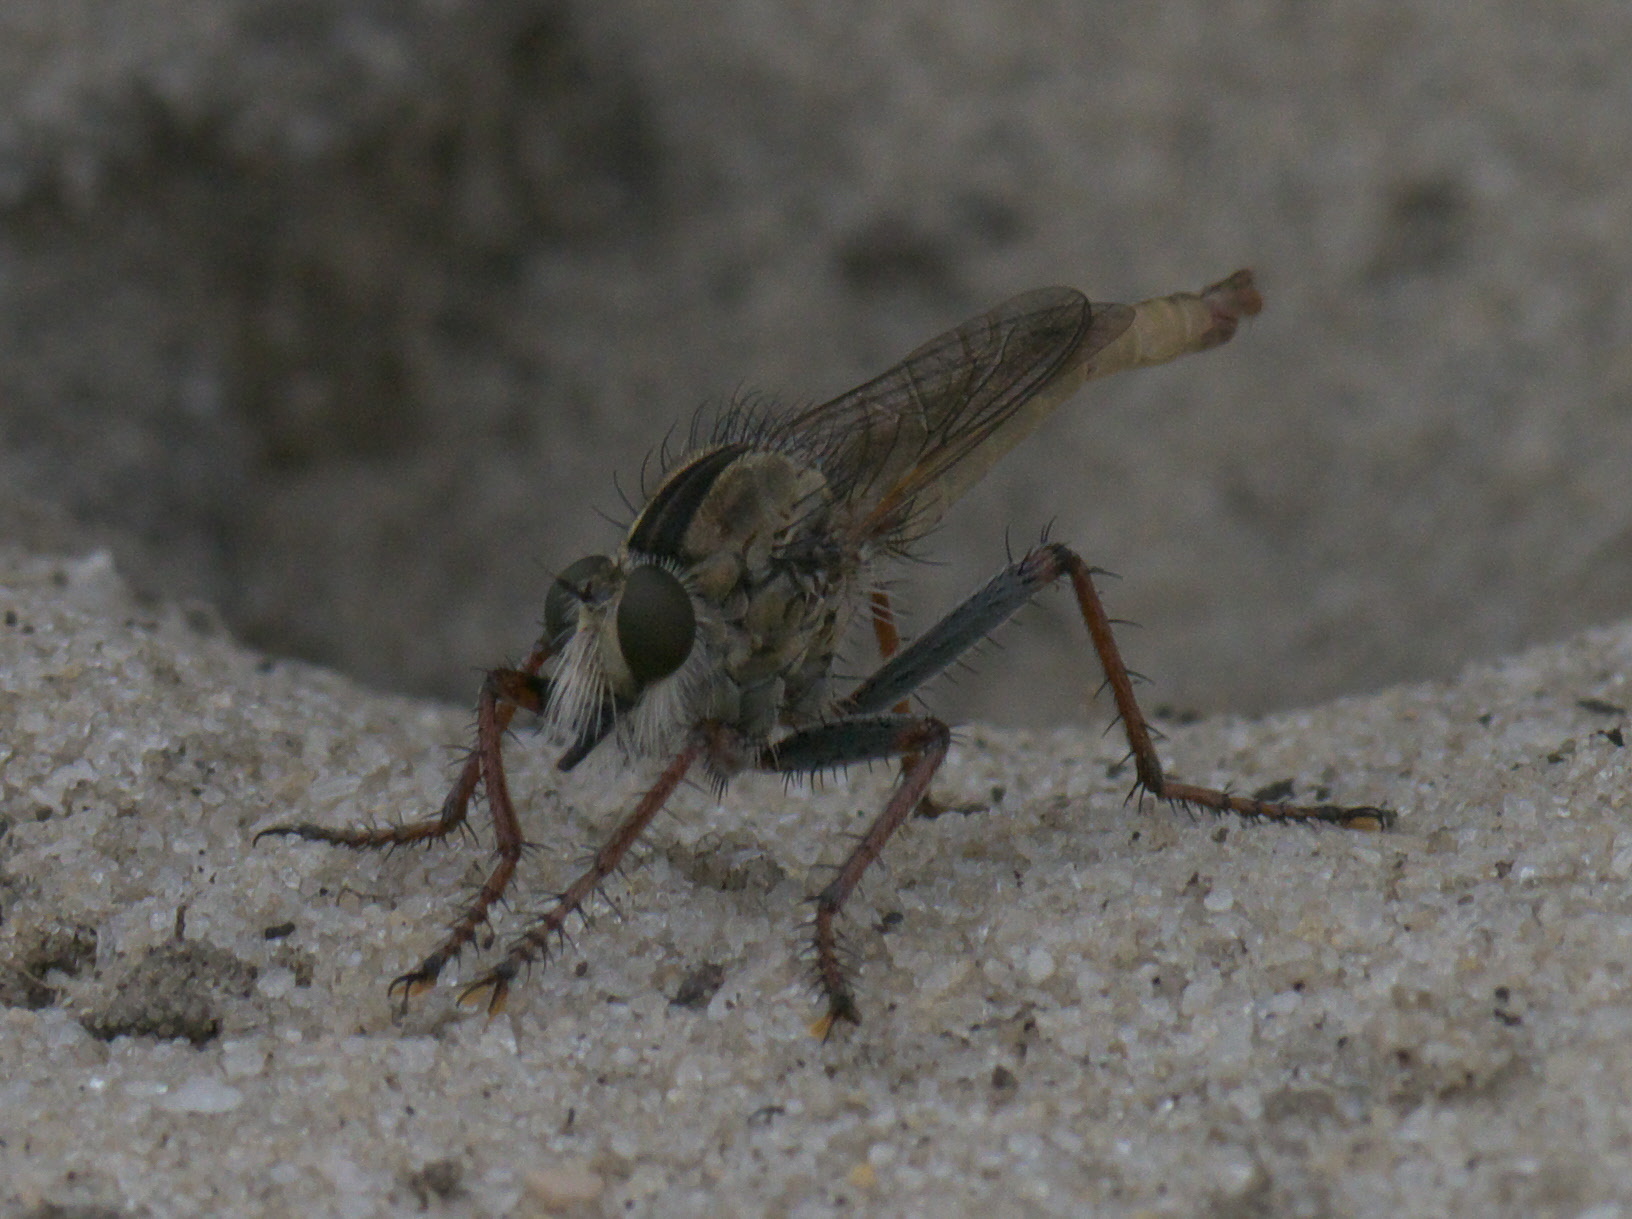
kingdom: Animalia
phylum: Arthropoda
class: Insecta
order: Diptera
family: Asilidae
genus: Proctacanthus
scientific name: Proctacanthus brevipennis
